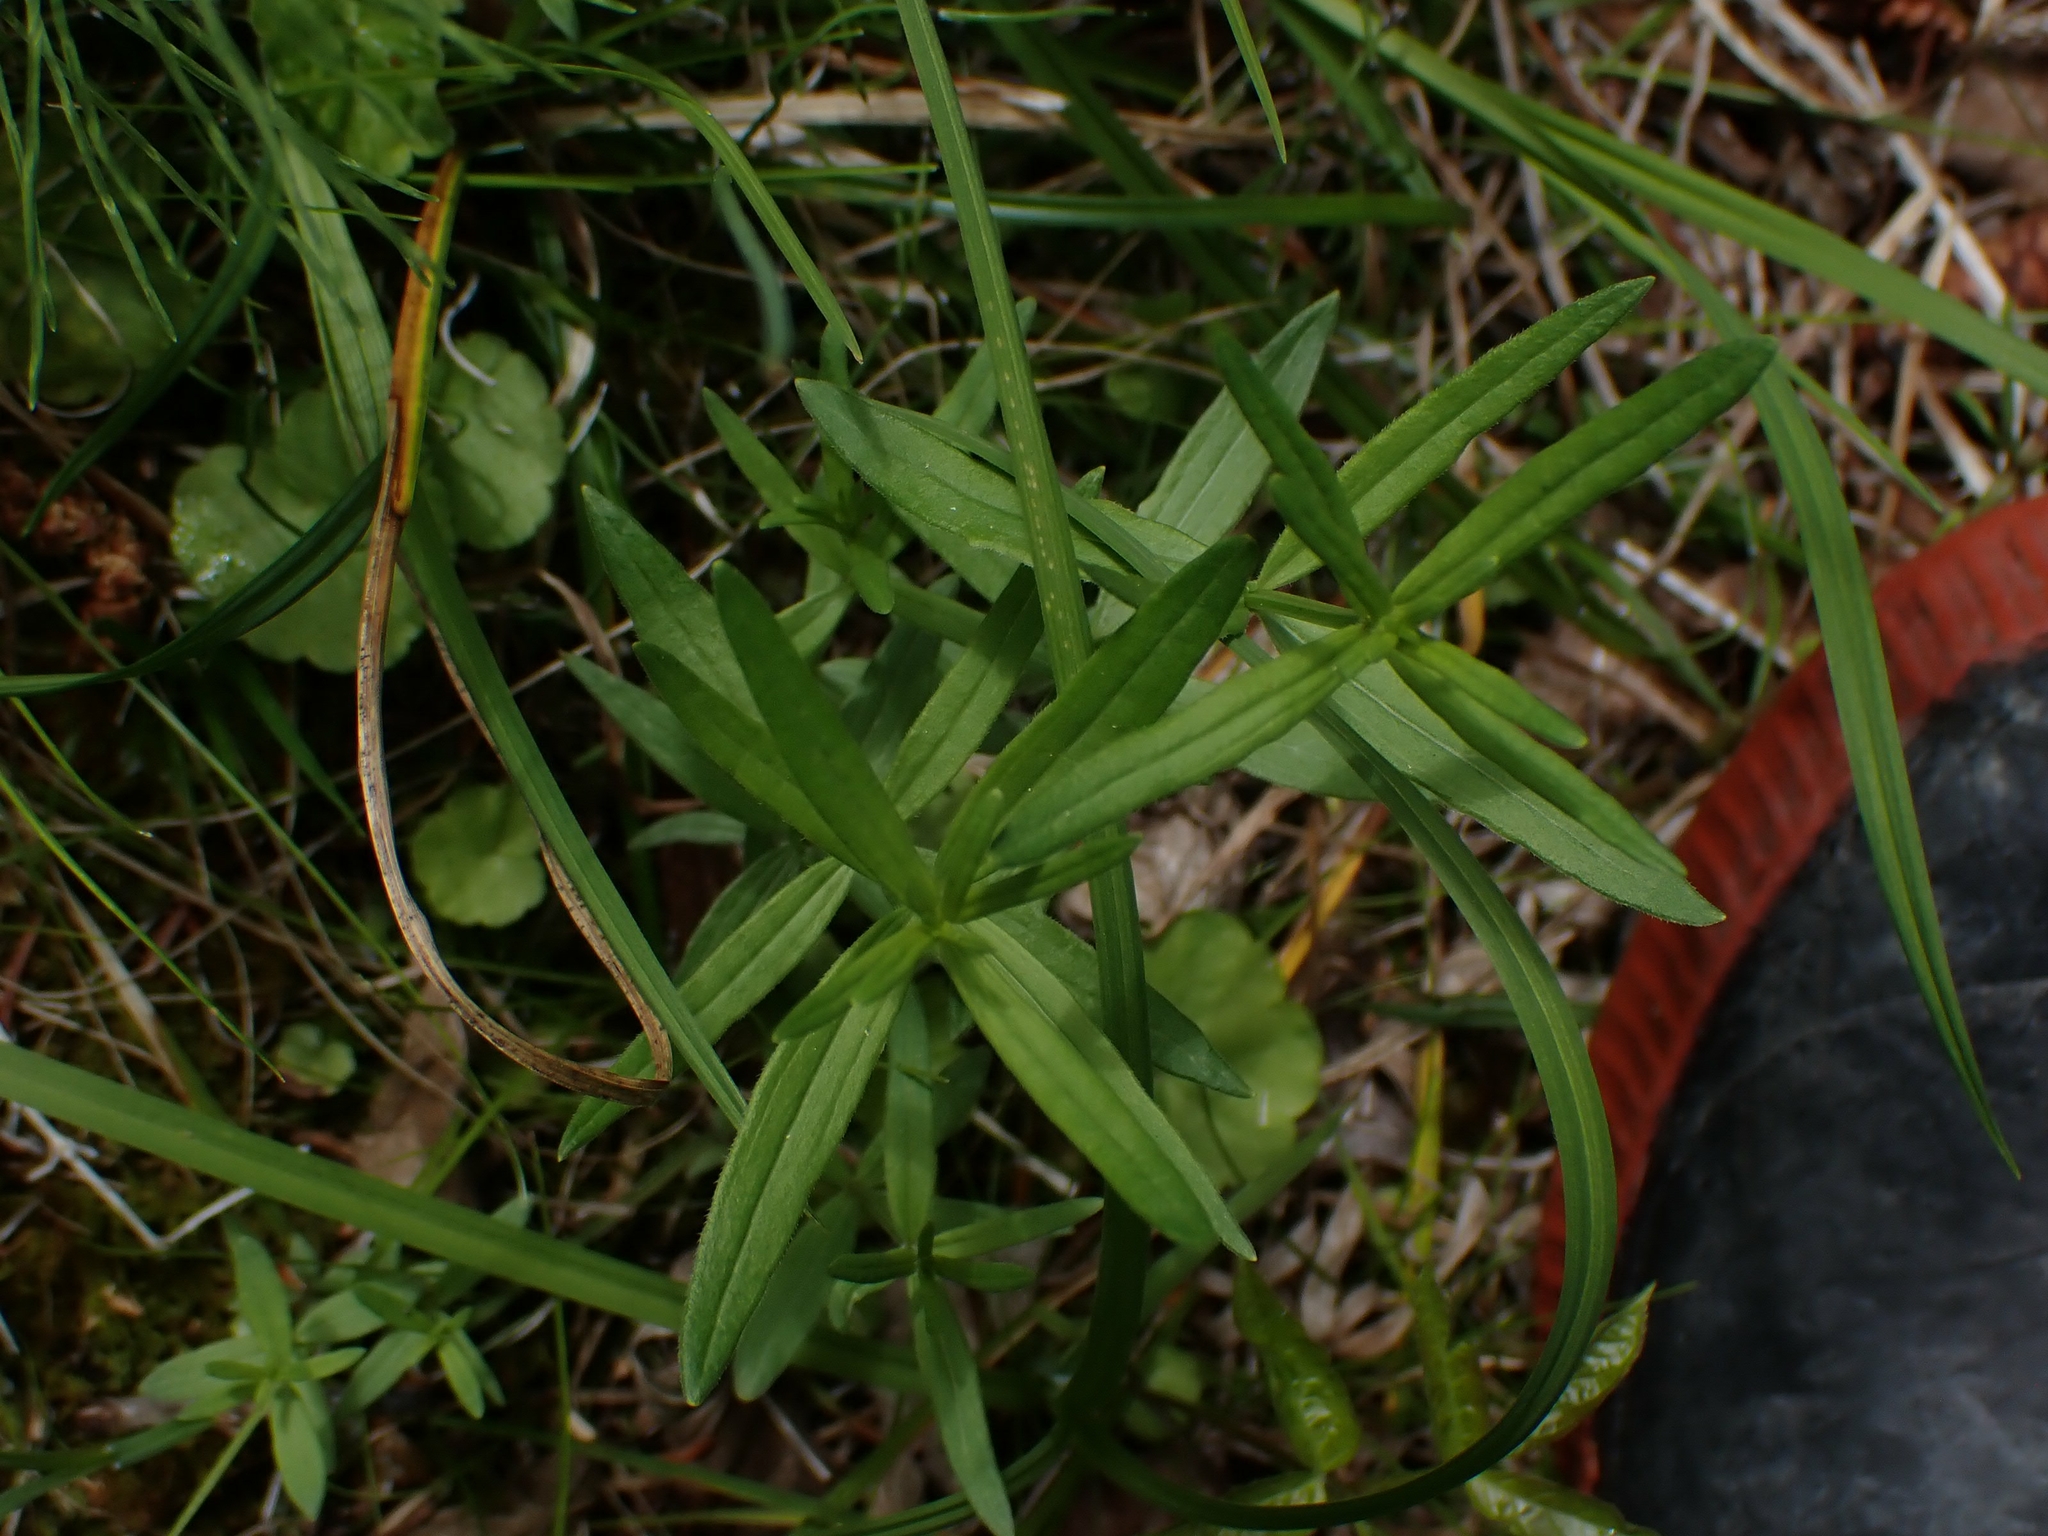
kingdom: Plantae
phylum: Tracheophyta
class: Magnoliopsida
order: Gentianales
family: Rubiaceae
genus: Galium
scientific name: Galium boreale
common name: Northern bedstraw
